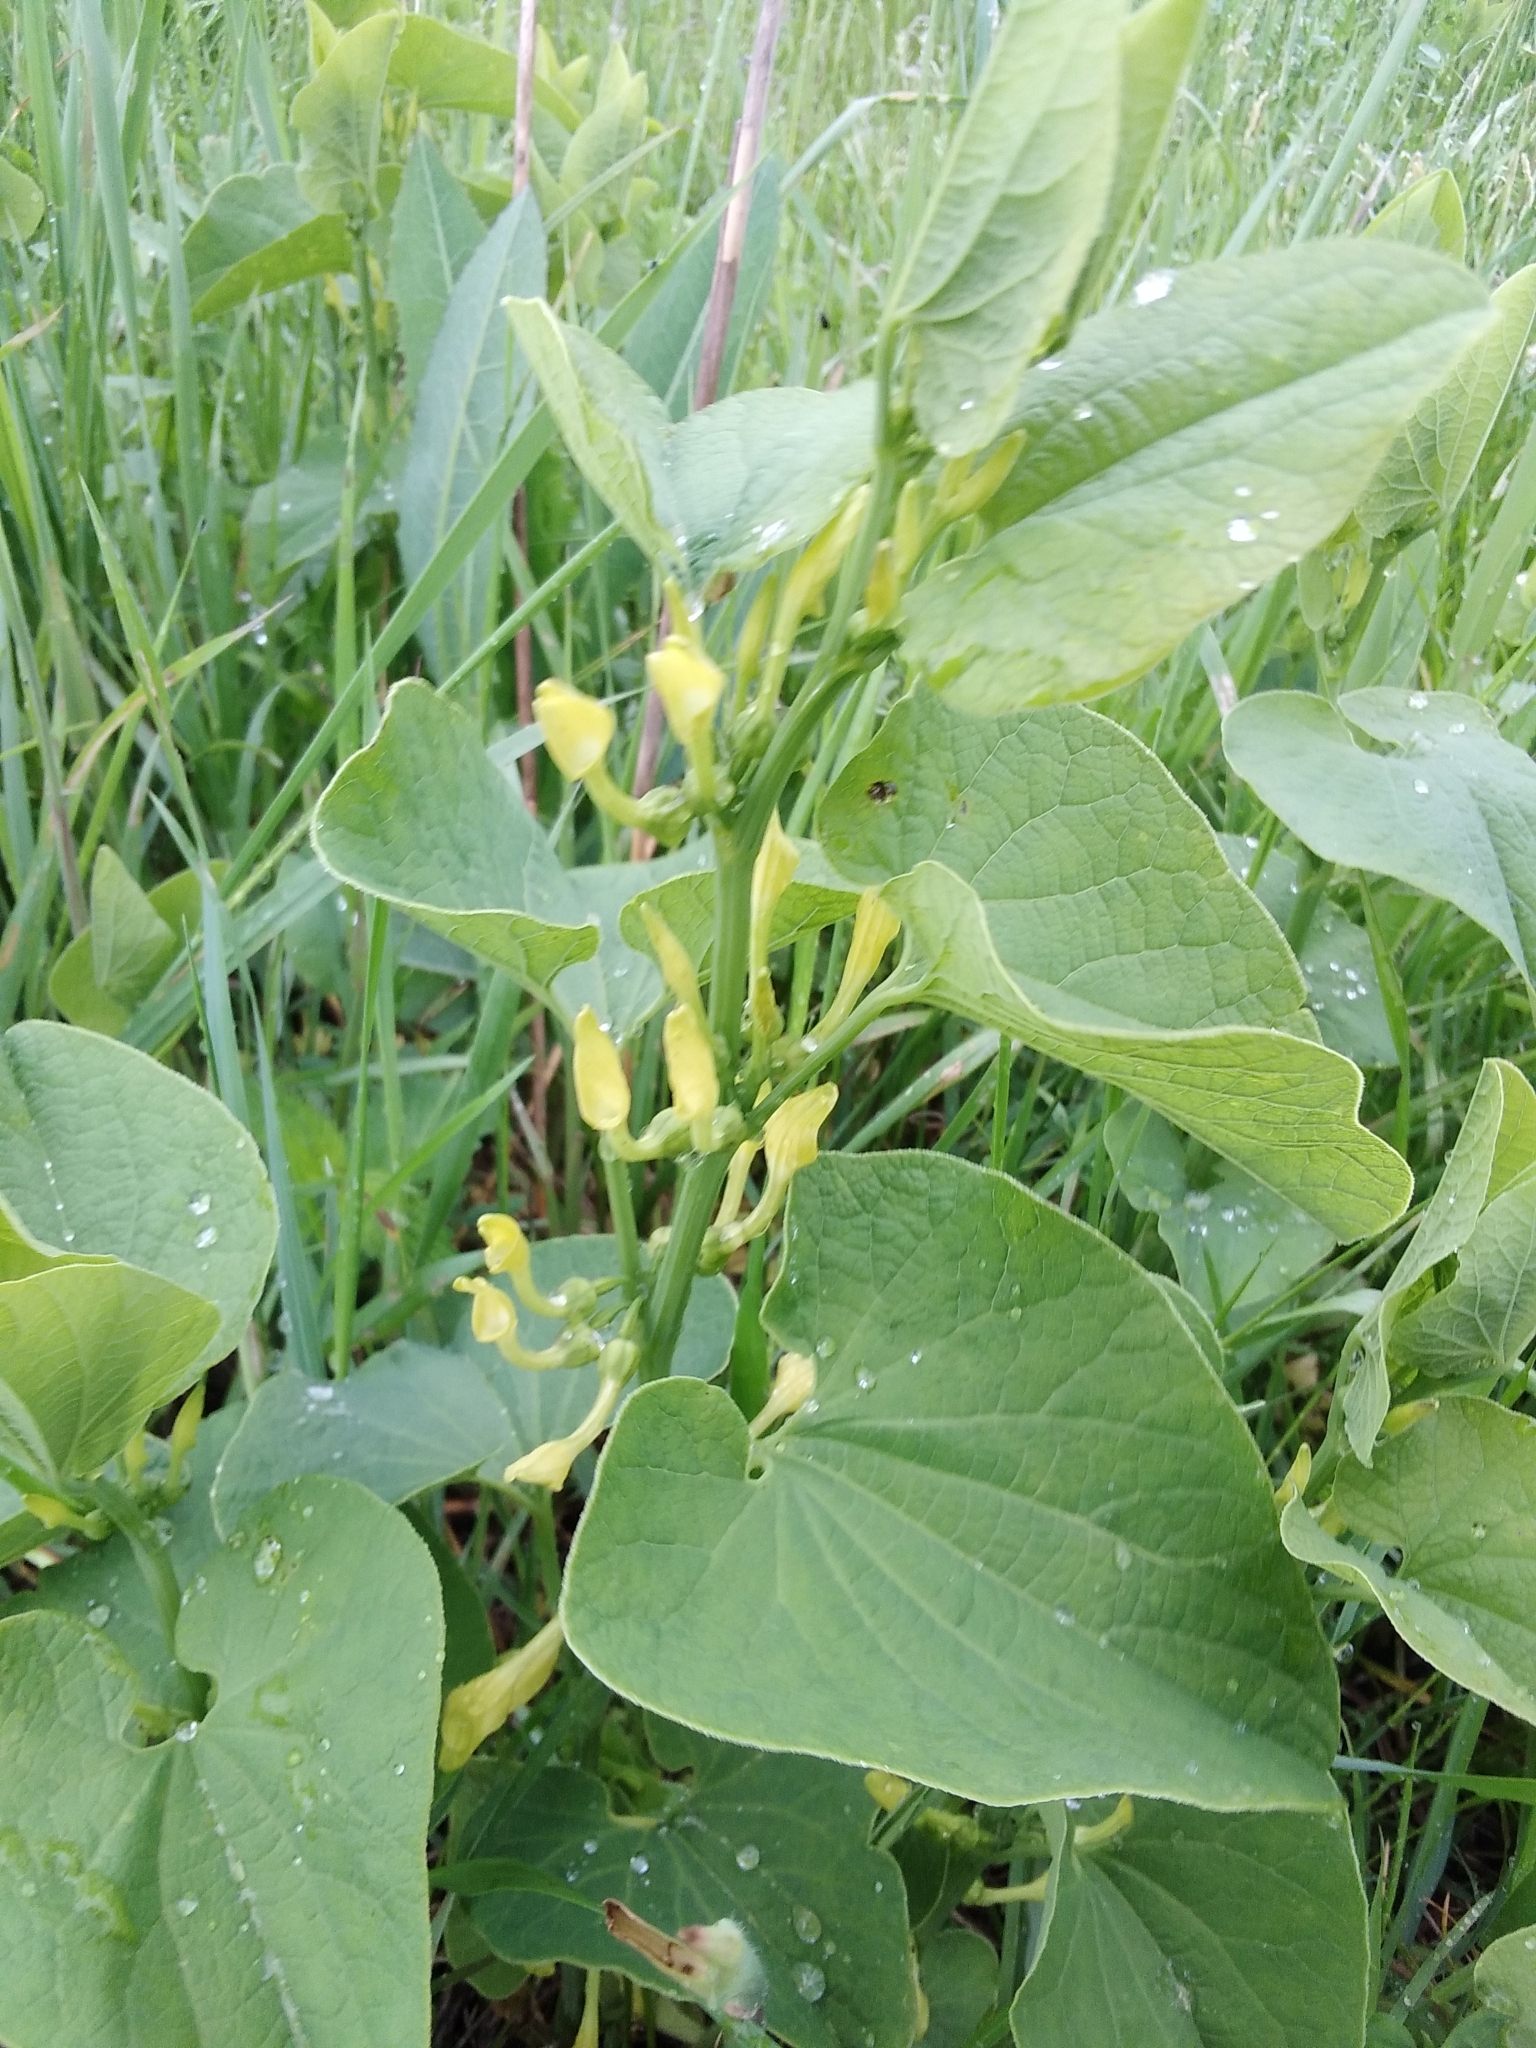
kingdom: Plantae
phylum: Tracheophyta
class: Magnoliopsida
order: Piperales
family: Aristolochiaceae
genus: Aristolochia
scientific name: Aristolochia clematitis
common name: Birthwort
